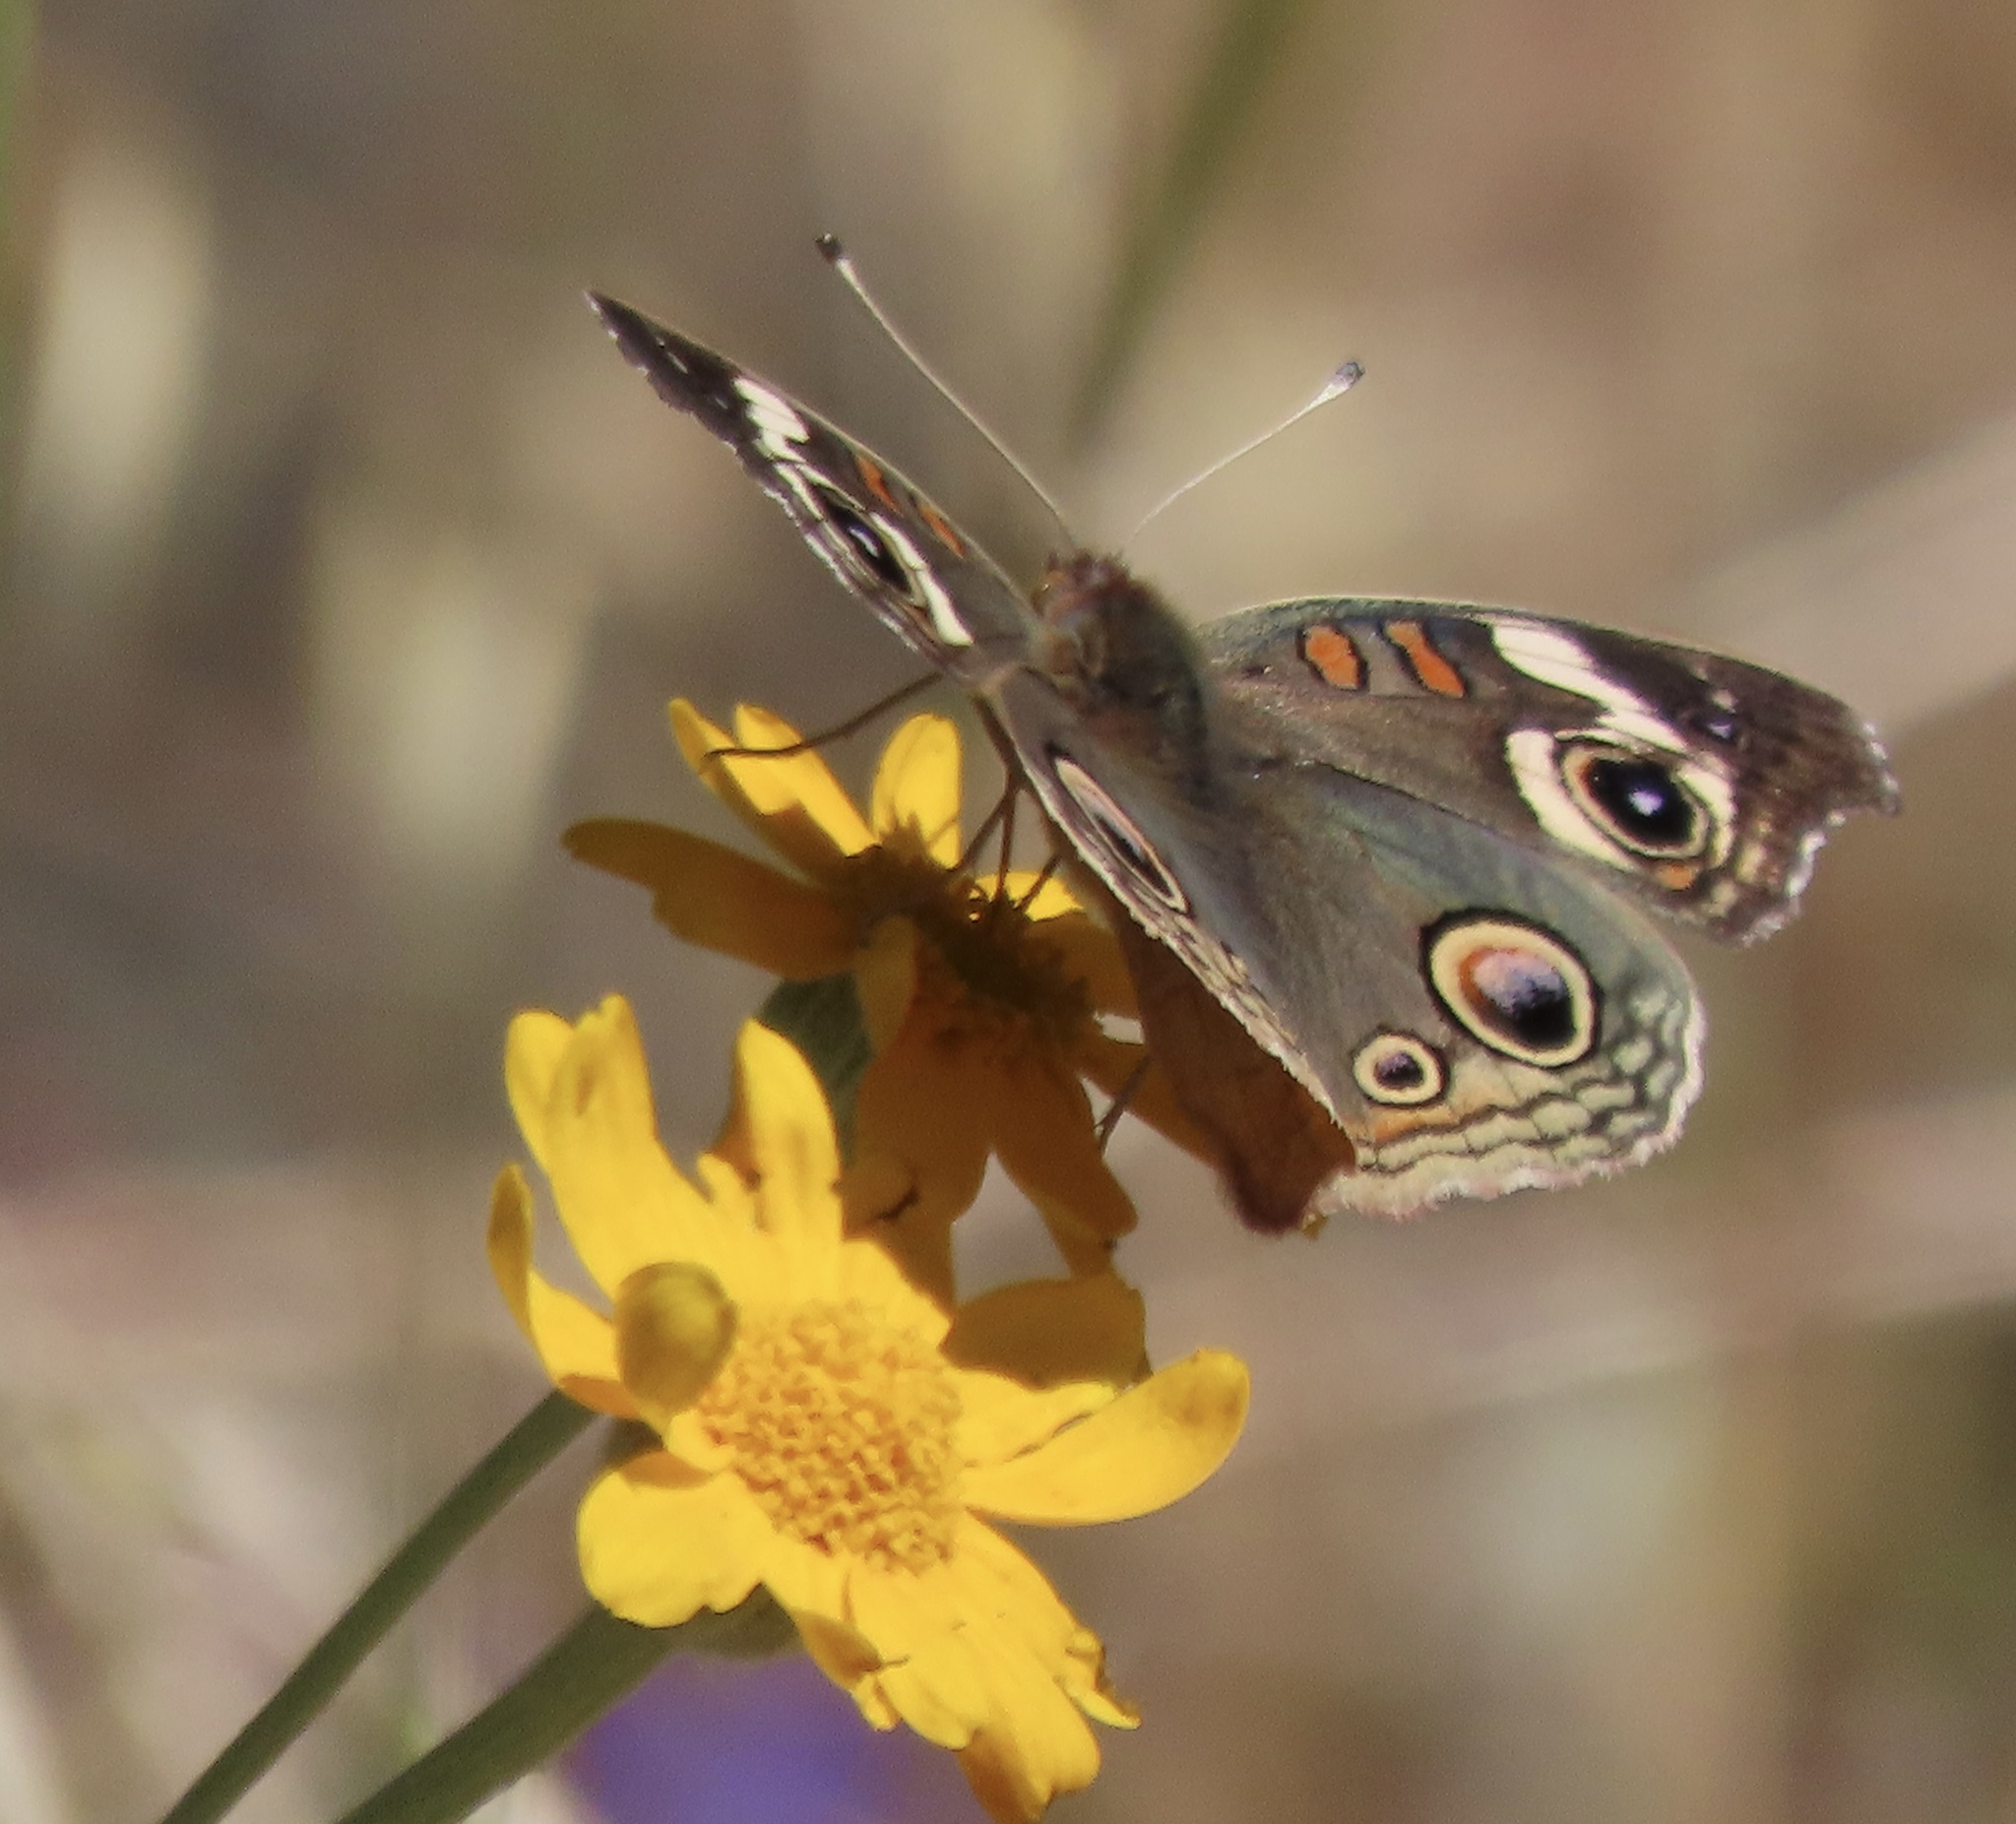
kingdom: Animalia
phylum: Arthropoda
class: Insecta
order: Lepidoptera
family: Nymphalidae
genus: Junonia
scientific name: Junonia grisea
